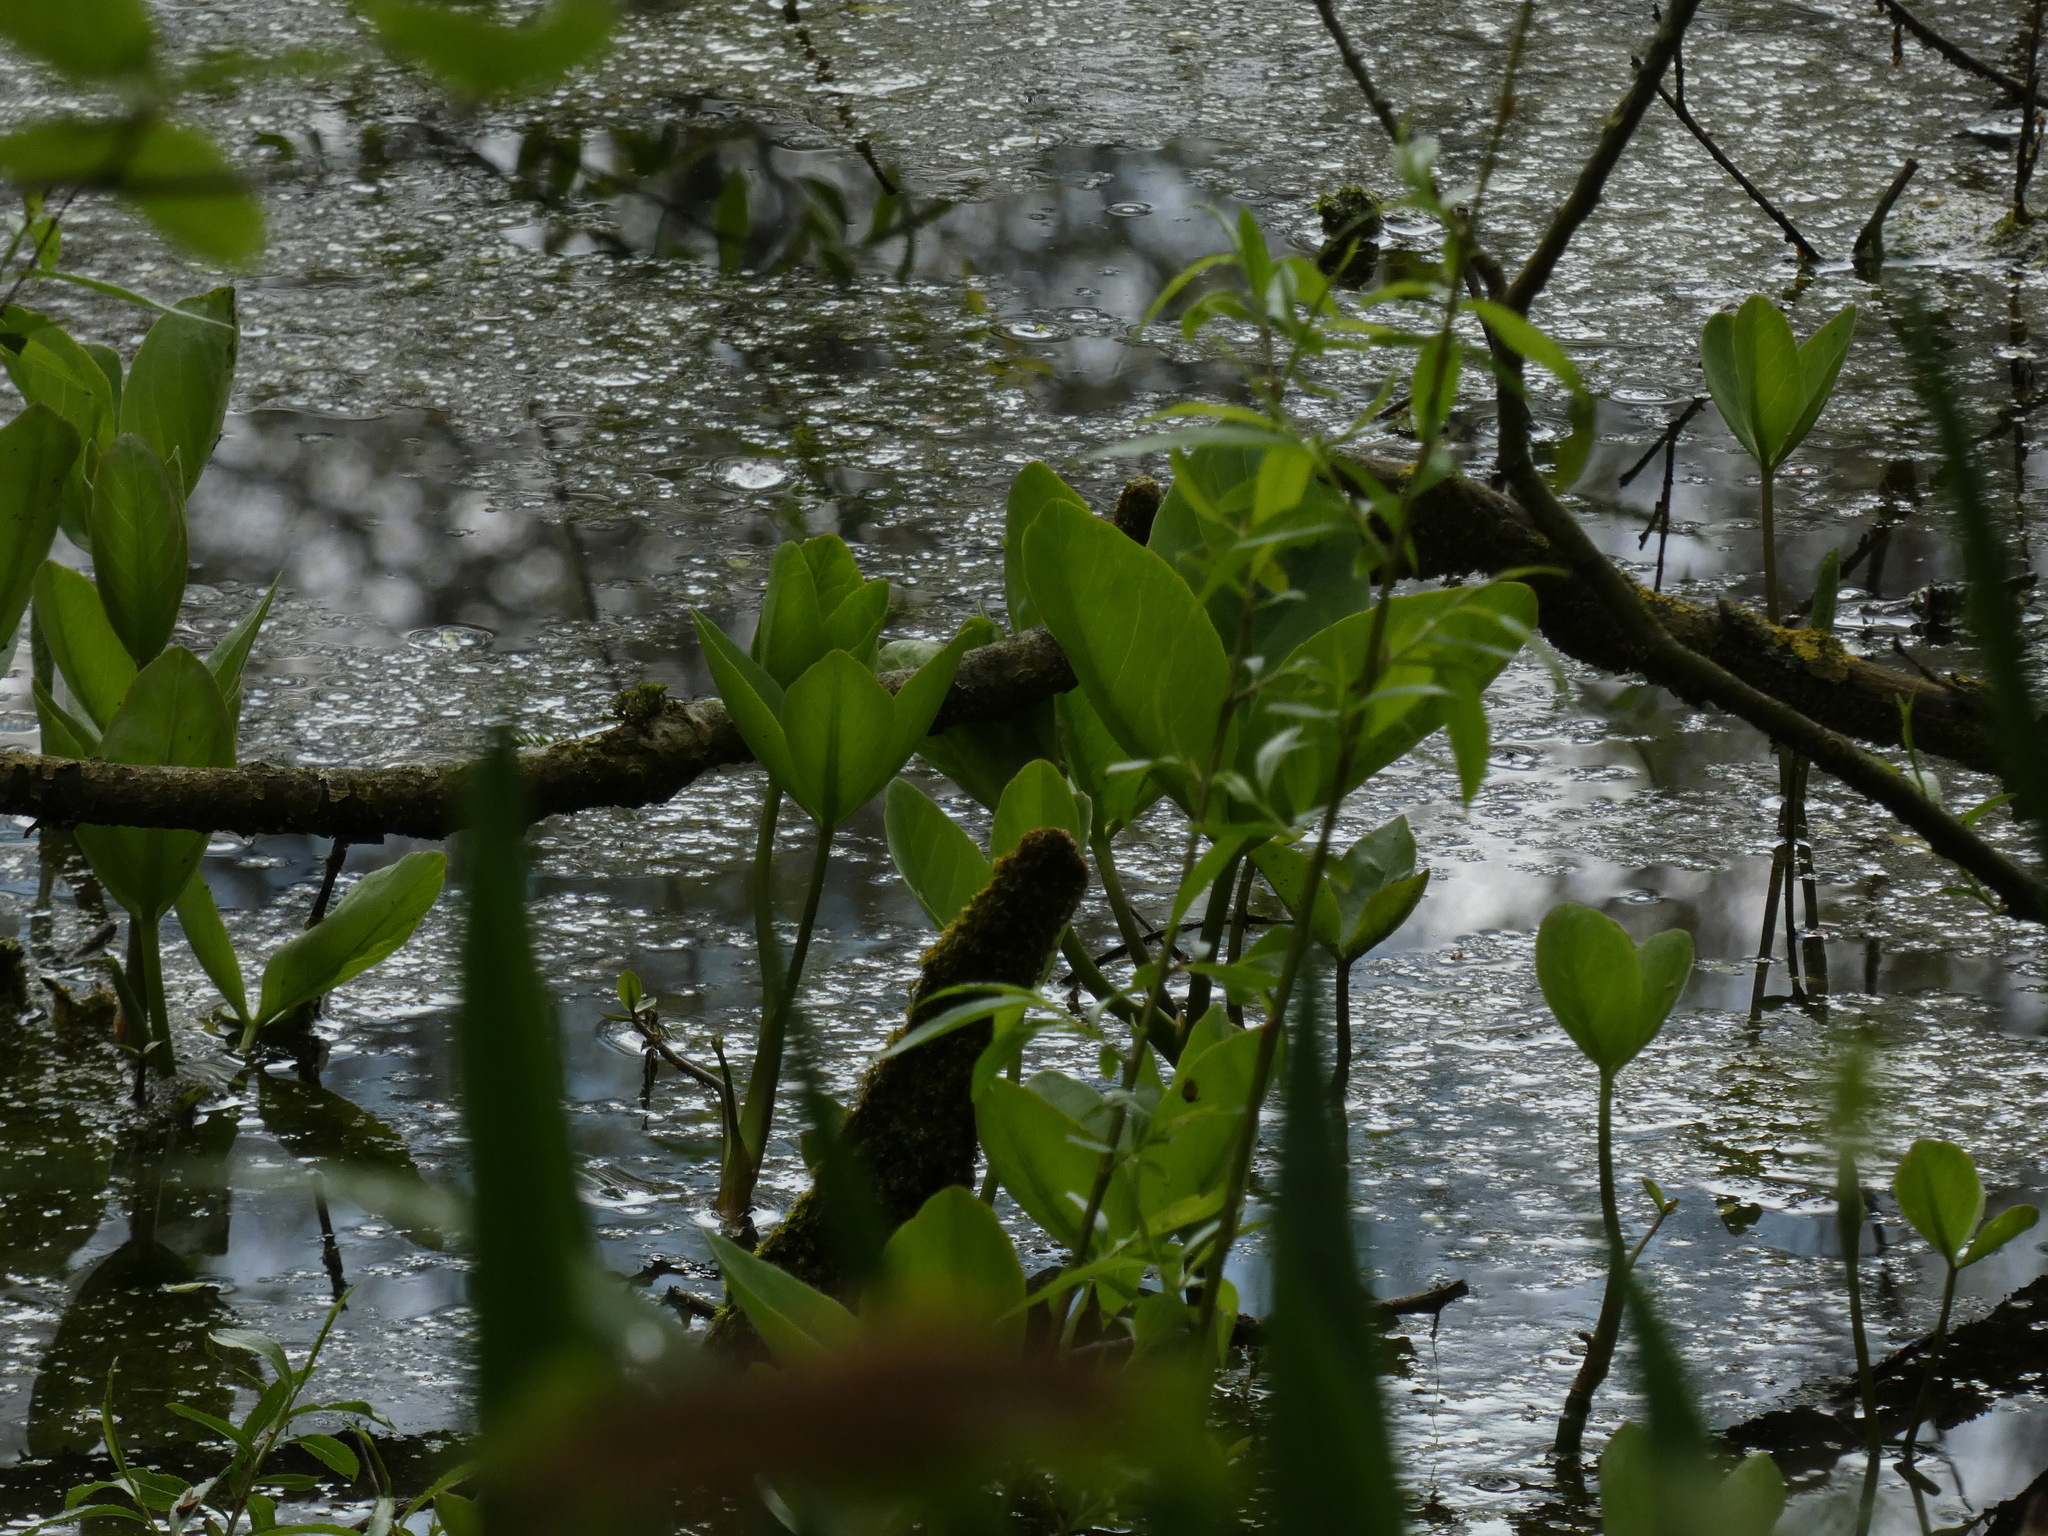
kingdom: Plantae
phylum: Tracheophyta
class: Magnoliopsida
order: Asterales
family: Menyanthaceae
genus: Menyanthes
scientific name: Menyanthes trifoliata
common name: Bogbean
